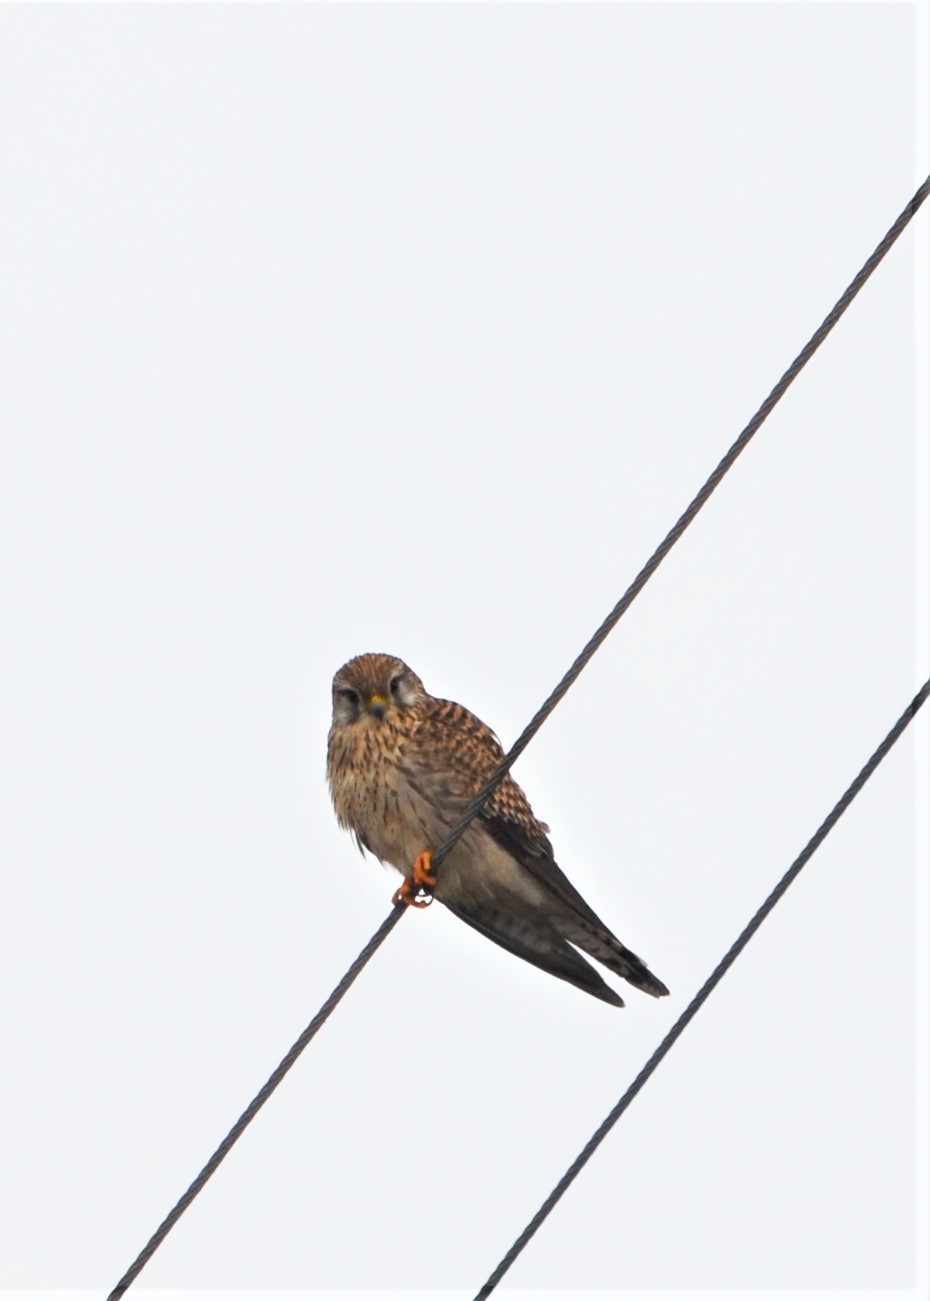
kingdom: Animalia
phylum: Chordata
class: Aves
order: Falconiformes
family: Falconidae
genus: Falco
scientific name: Falco tinnunculus
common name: Common kestrel
